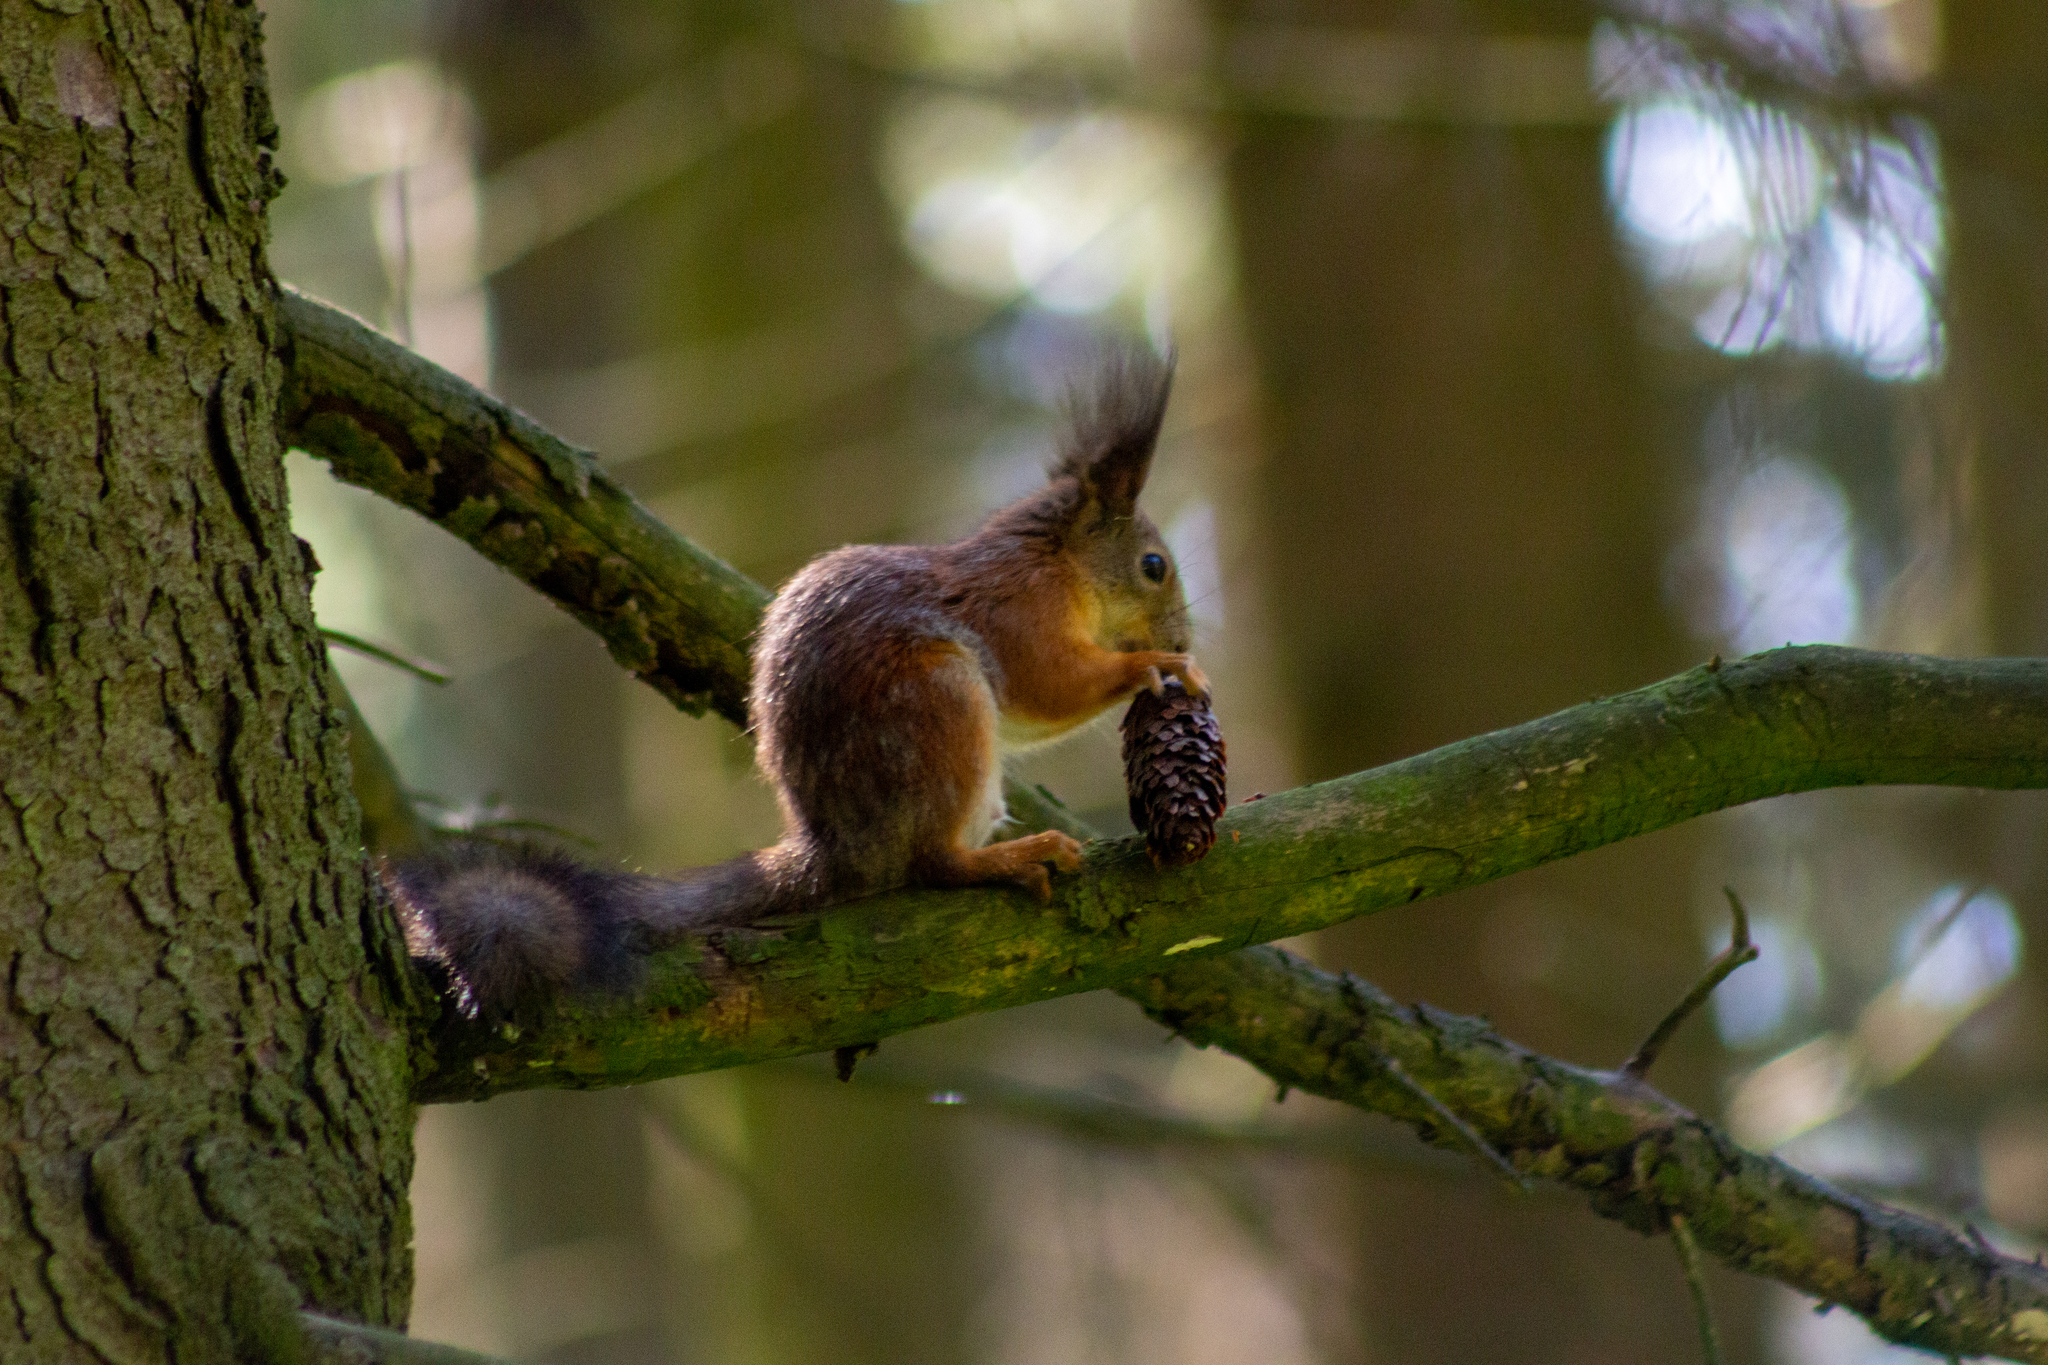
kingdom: Animalia
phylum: Chordata
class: Mammalia
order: Rodentia
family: Sciuridae
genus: Sciurus
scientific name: Sciurus vulgaris
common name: Eurasian red squirrel
